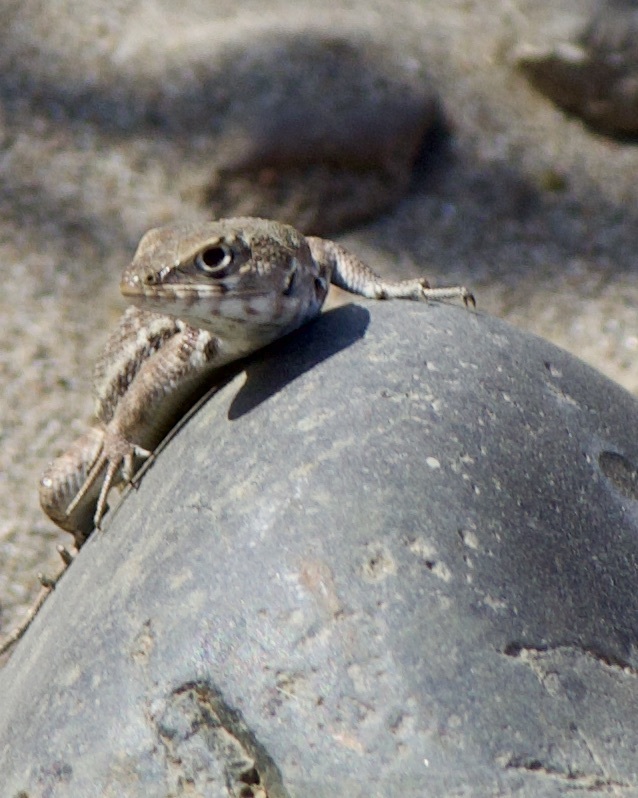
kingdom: Animalia
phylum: Chordata
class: Squamata
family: Liolaemidae
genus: Liolaemus
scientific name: Liolaemus zapallarensis
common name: Zapallaren tree iguana
